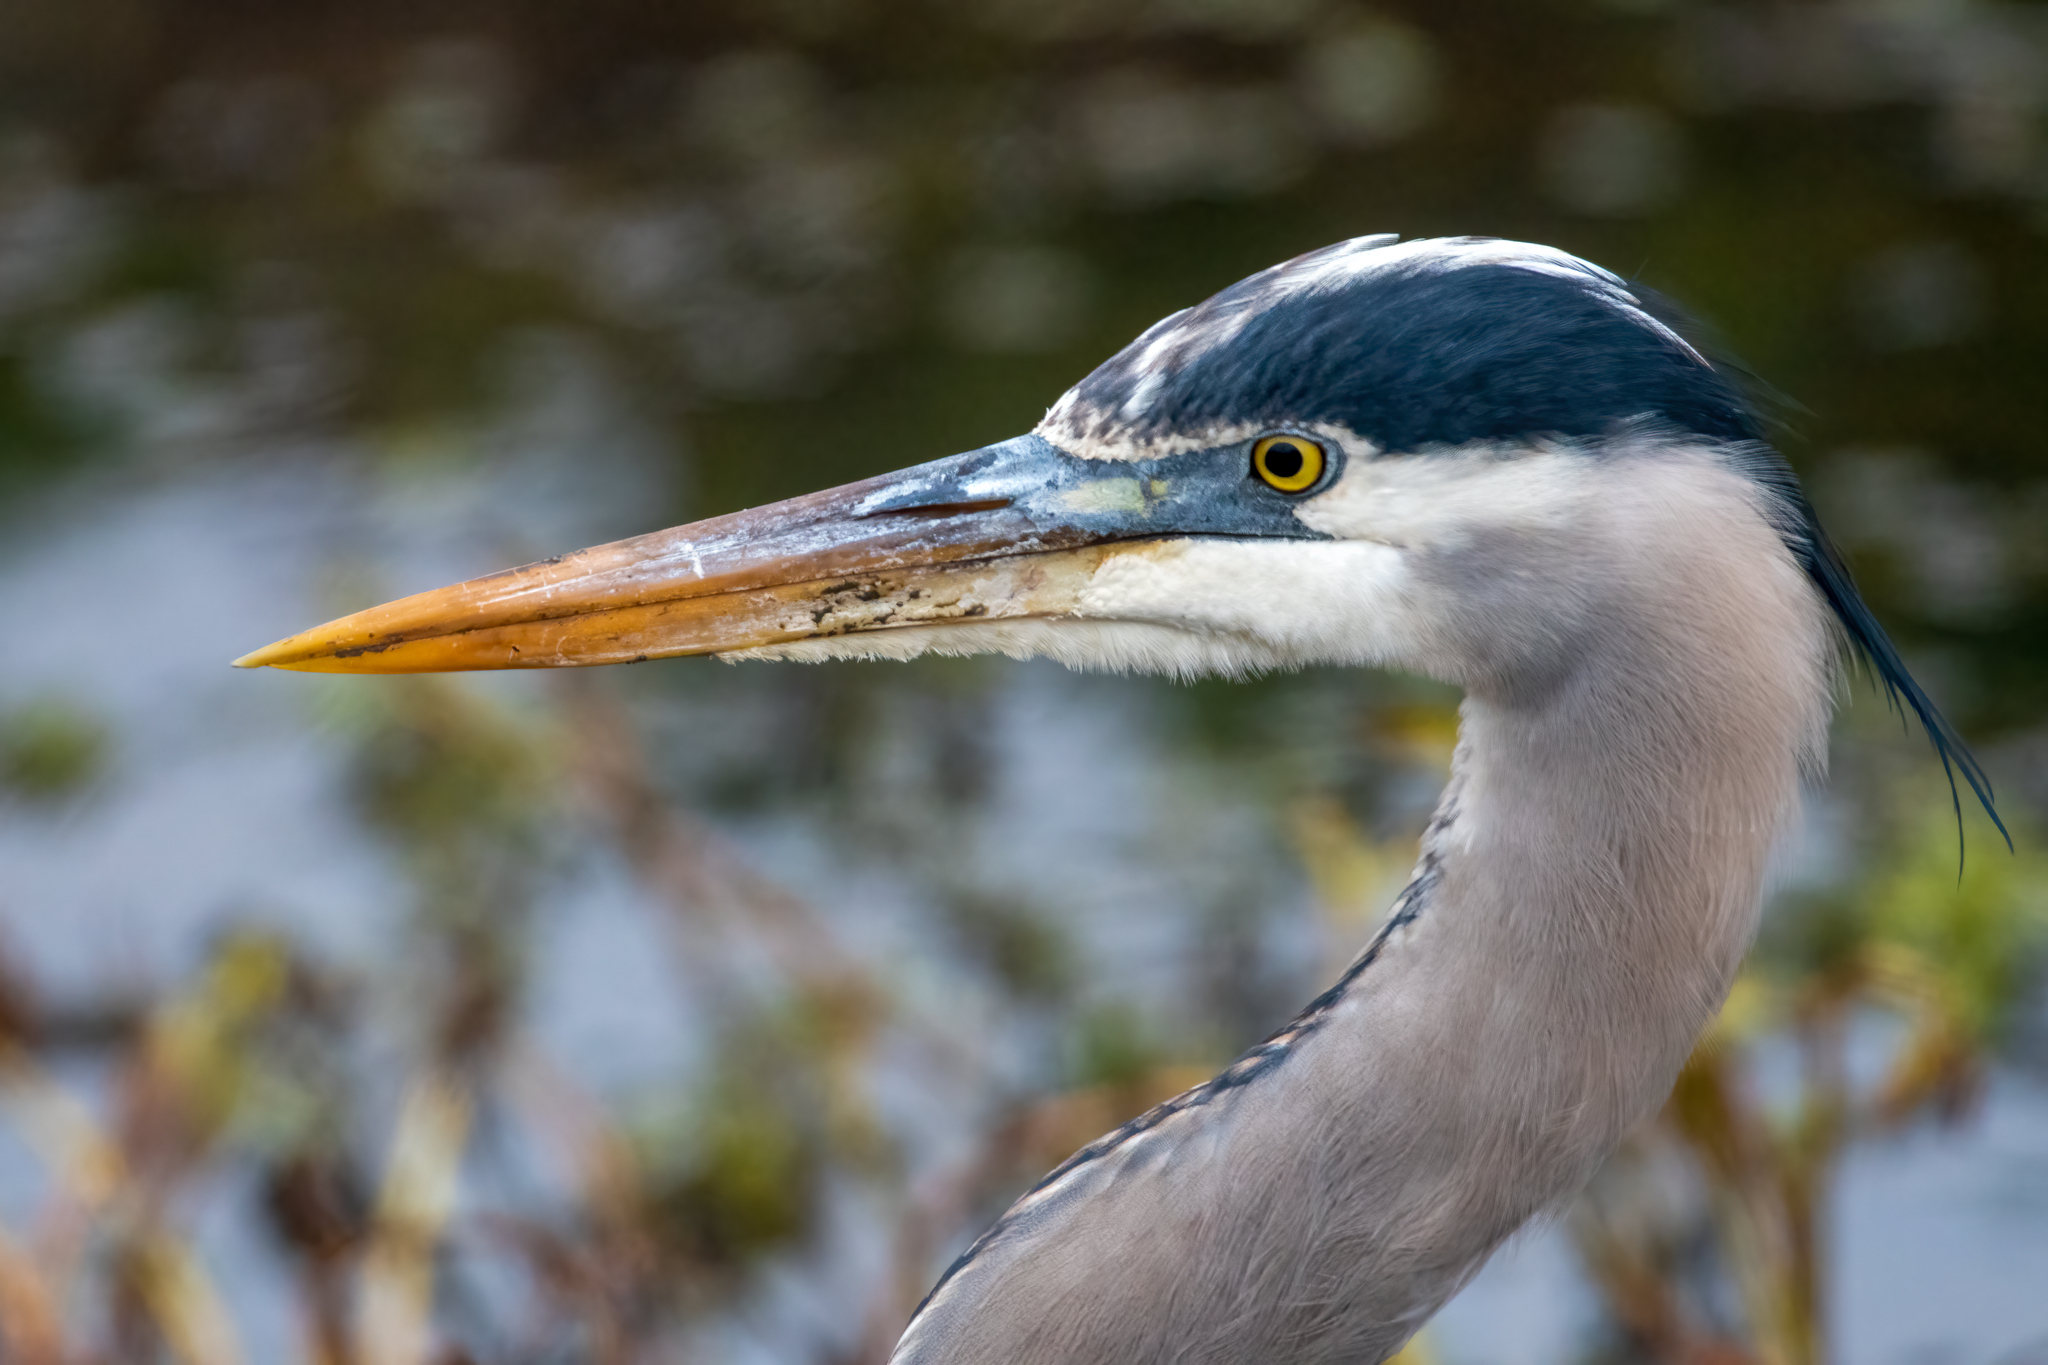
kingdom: Animalia
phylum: Chordata
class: Aves
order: Pelecaniformes
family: Ardeidae
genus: Ardea
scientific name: Ardea herodias
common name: Great blue heron
